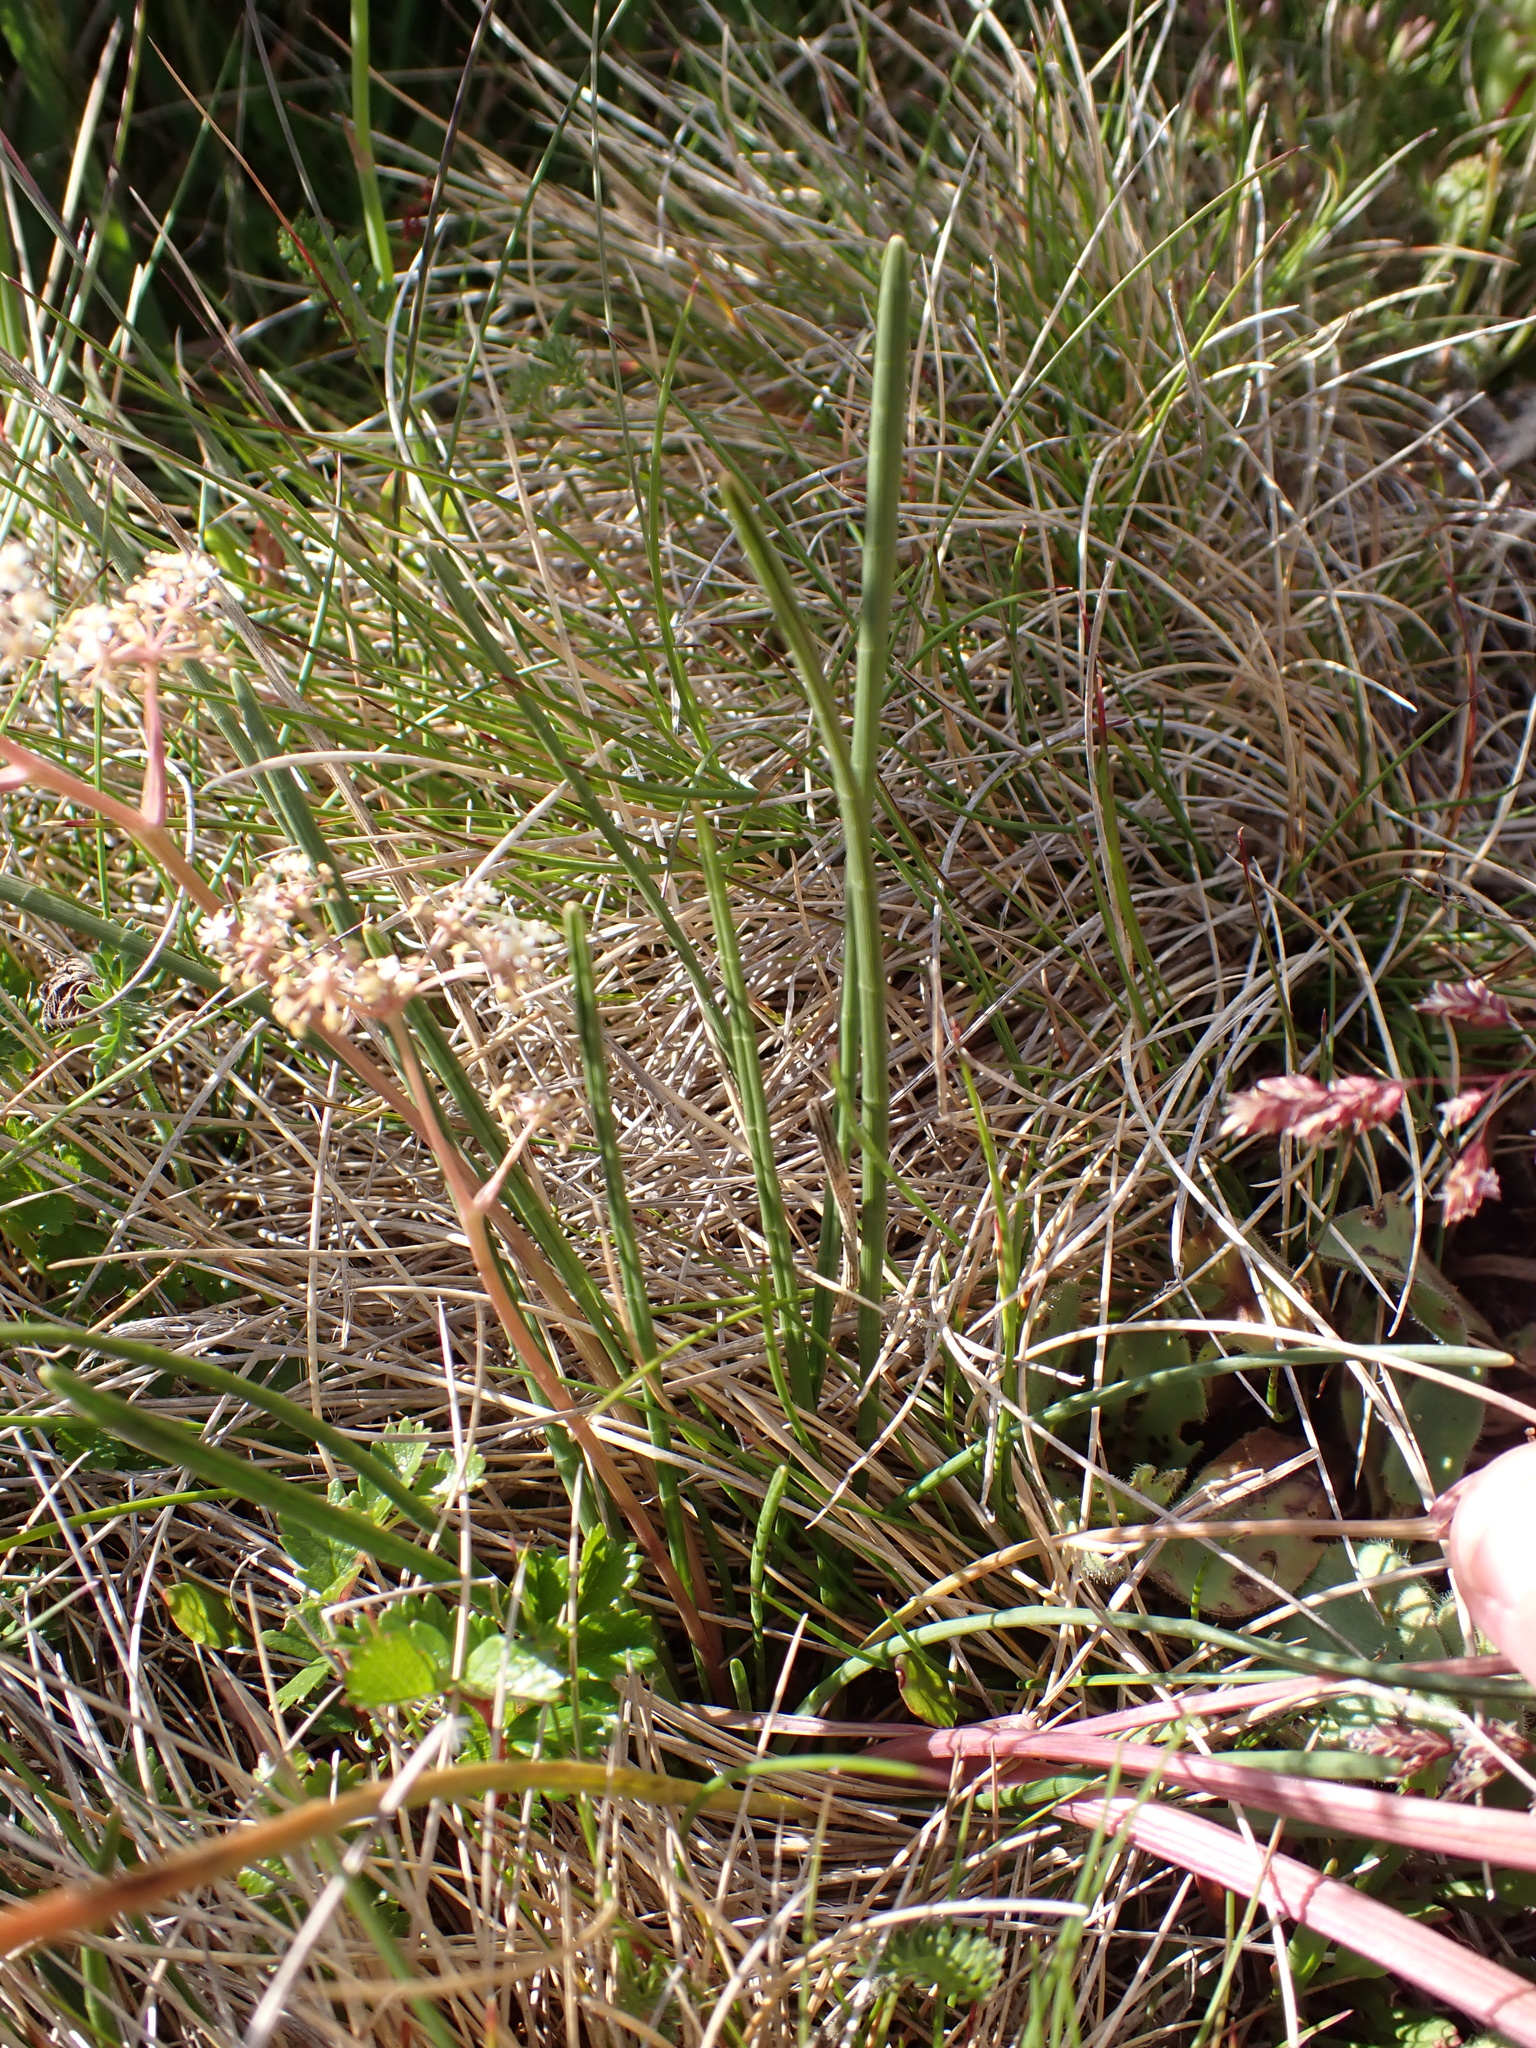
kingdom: Plantae
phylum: Tracheophyta
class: Magnoliopsida
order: Apiales
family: Apiaceae
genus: Aciphylla
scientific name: Aciphylla simplicifolia
